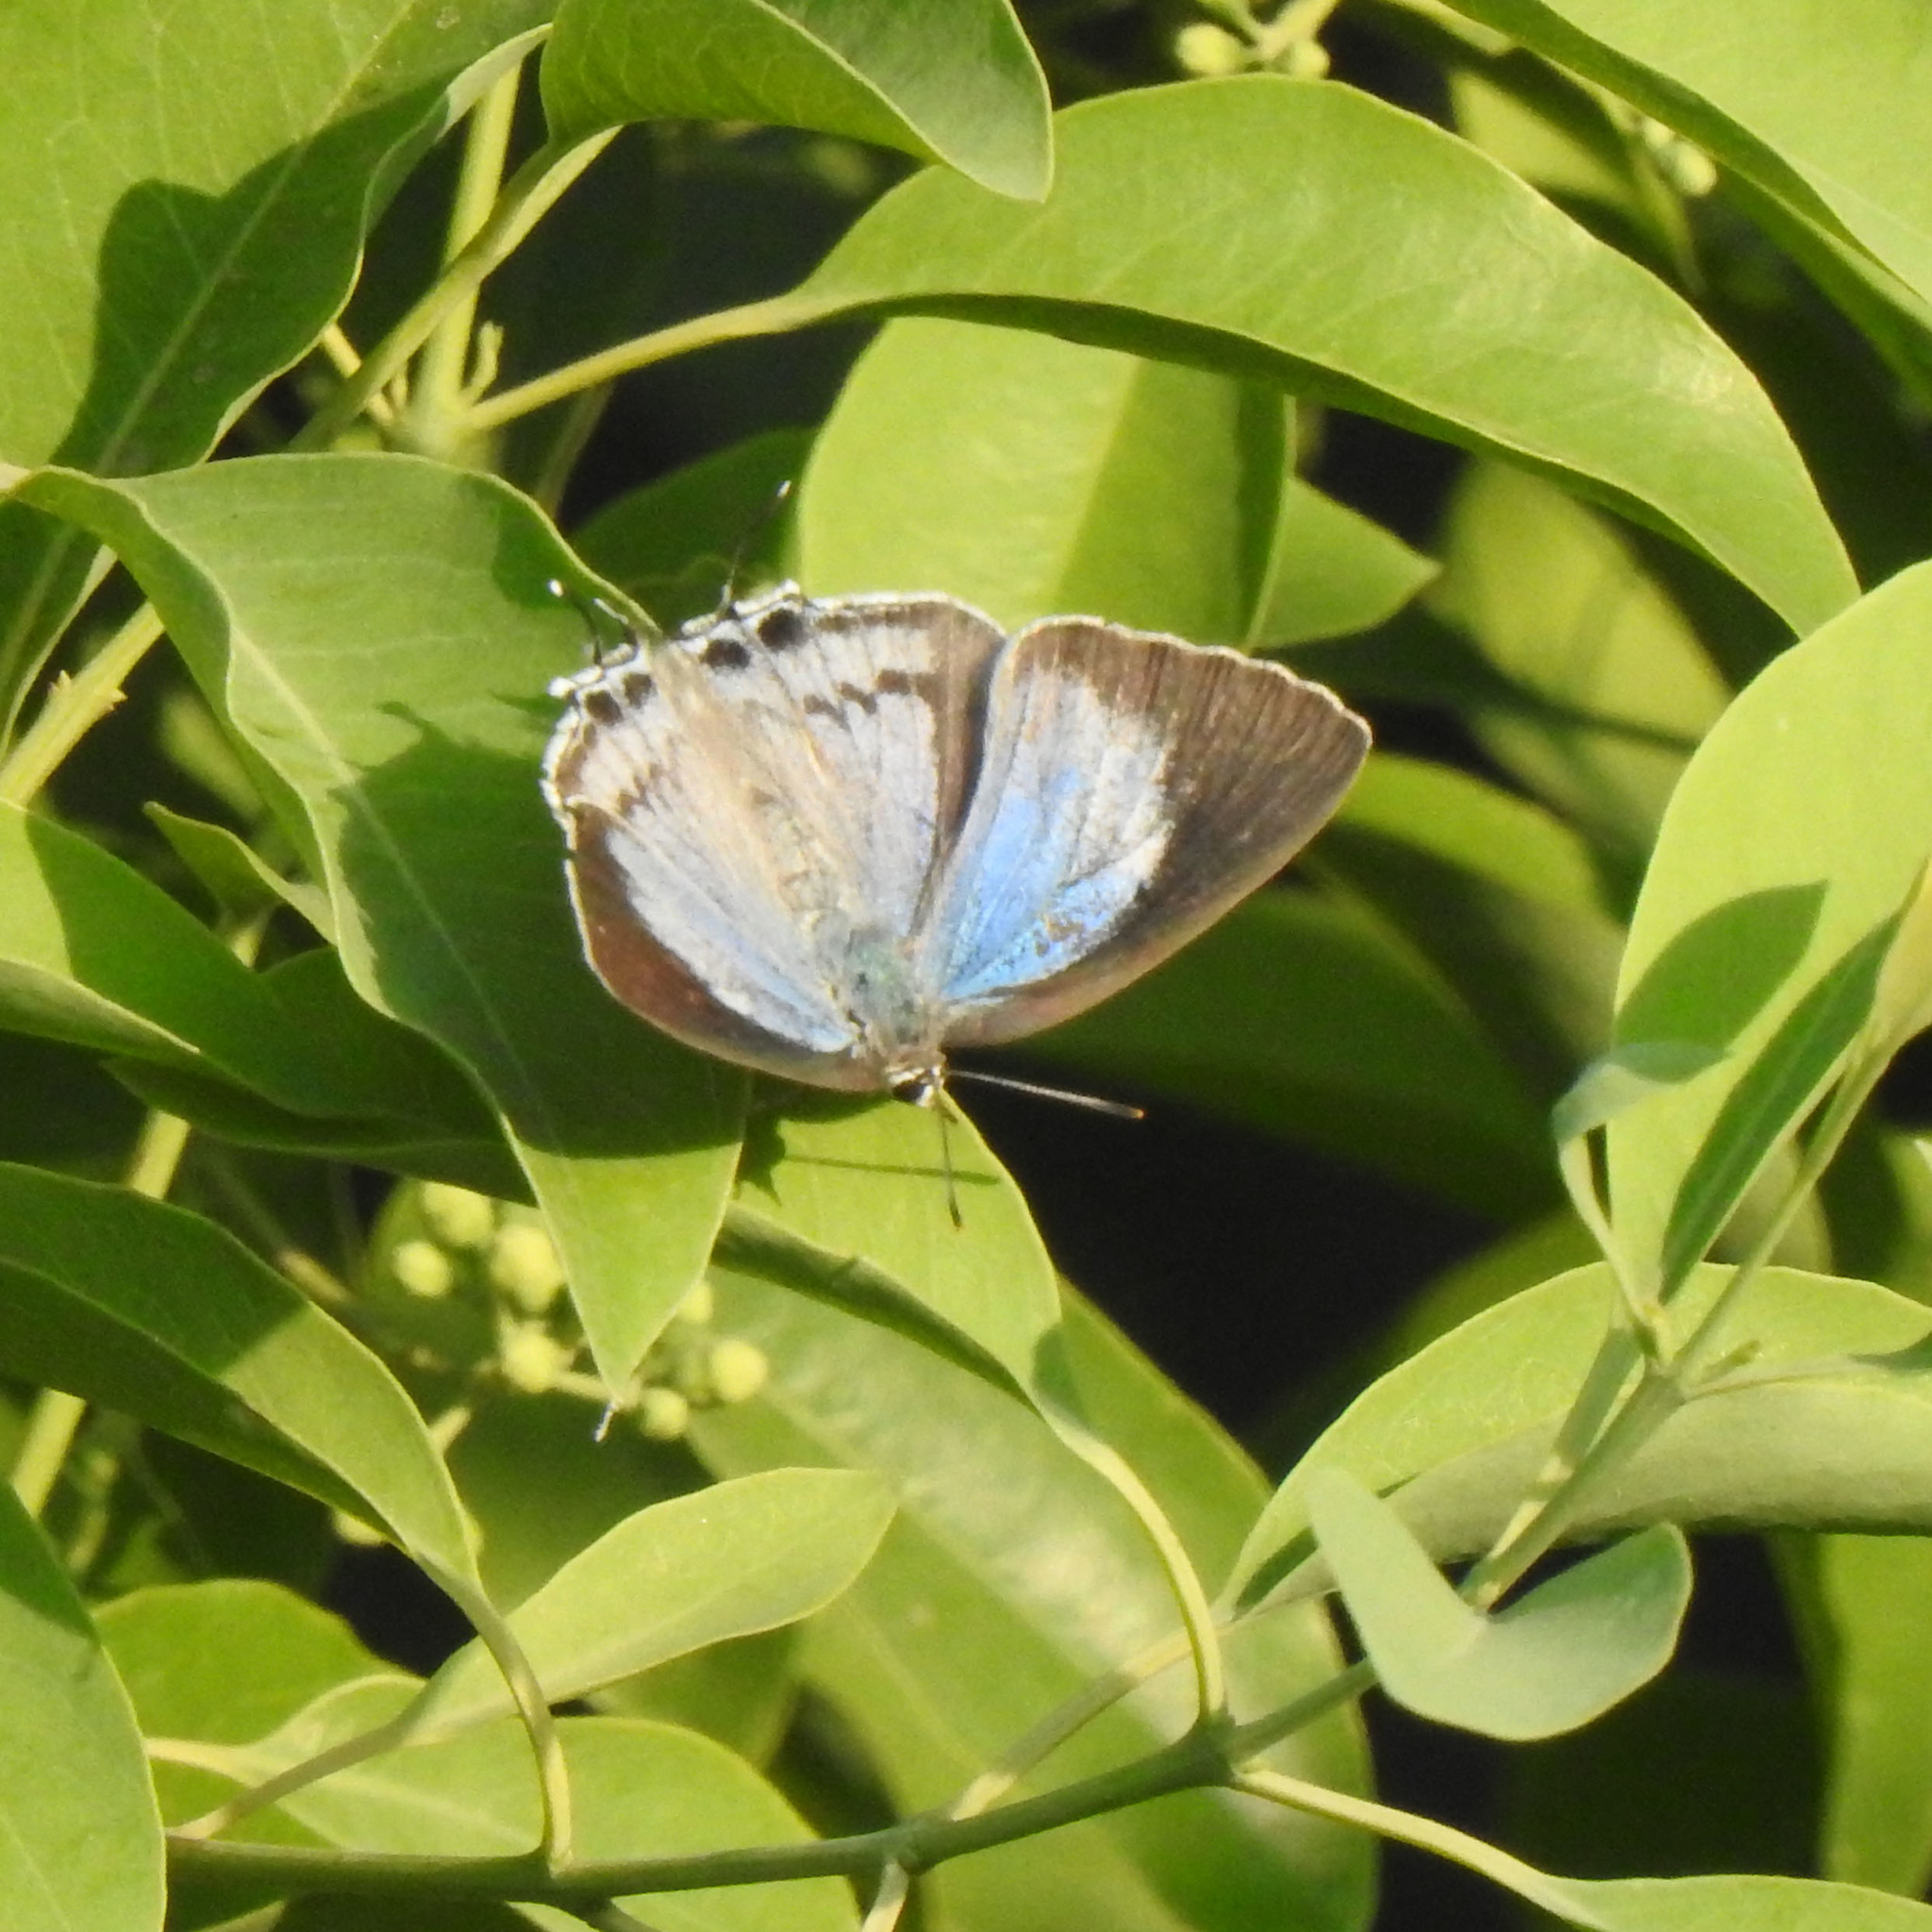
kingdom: Animalia
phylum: Arthropoda
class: Insecta
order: Lepidoptera
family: Lycaenidae
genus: Tajuria
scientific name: Tajuria cippus
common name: Peacock royal
